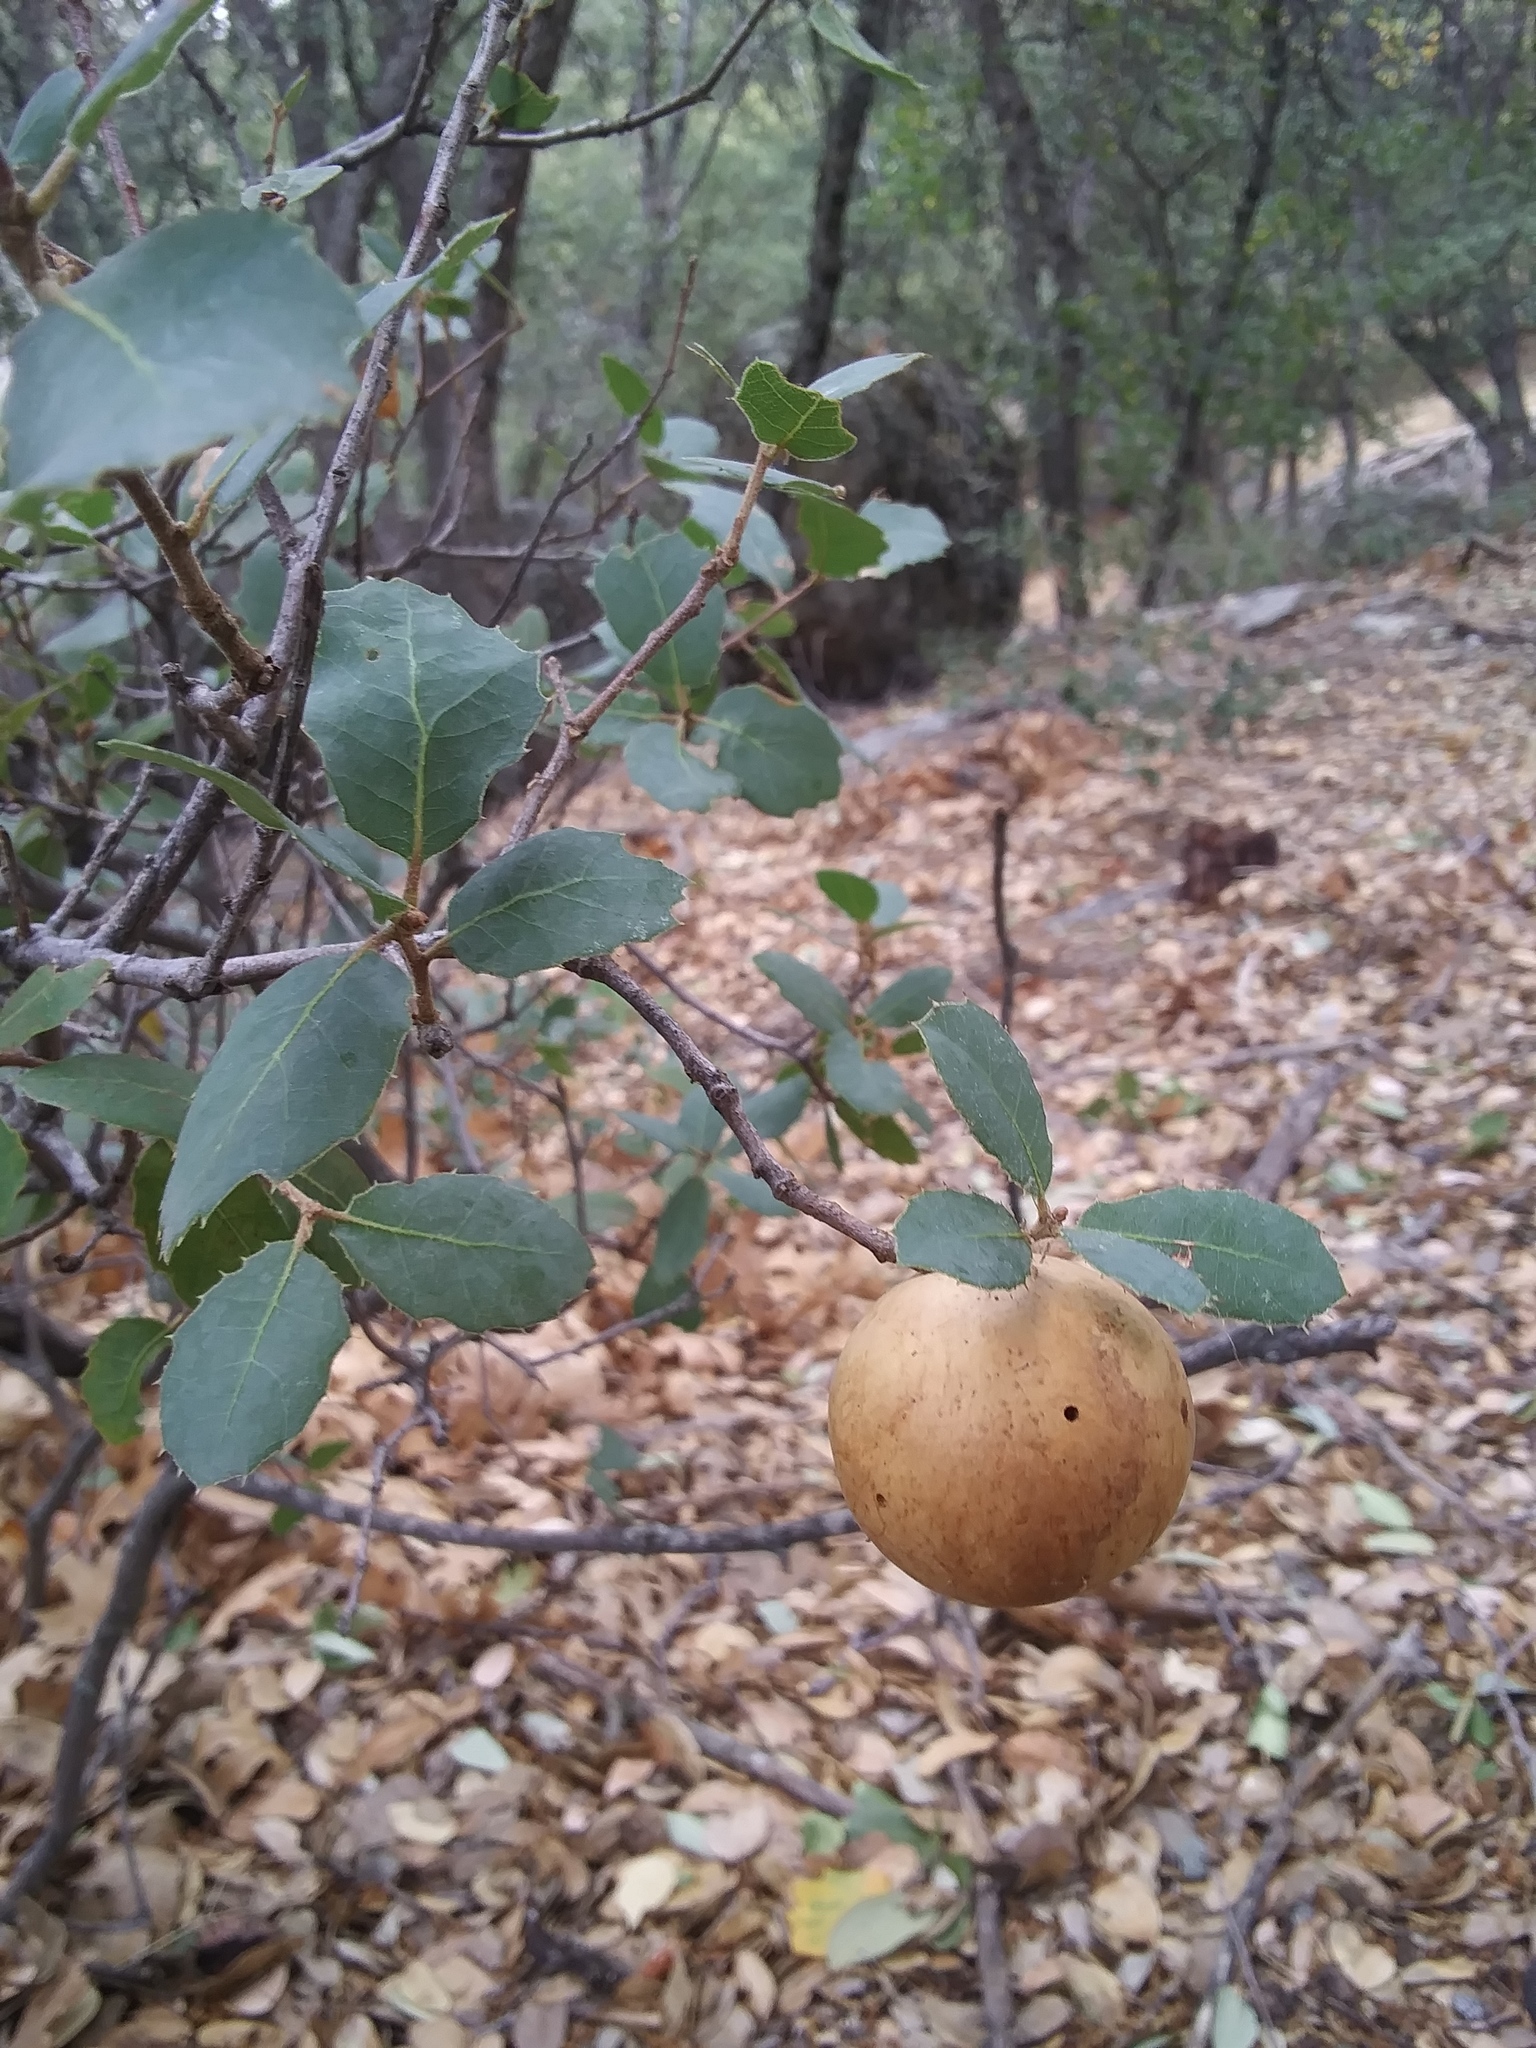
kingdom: Animalia
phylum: Arthropoda
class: Insecta
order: Hymenoptera
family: Cynipidae
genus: Andricus
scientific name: Andricus quercuscalifornicus
